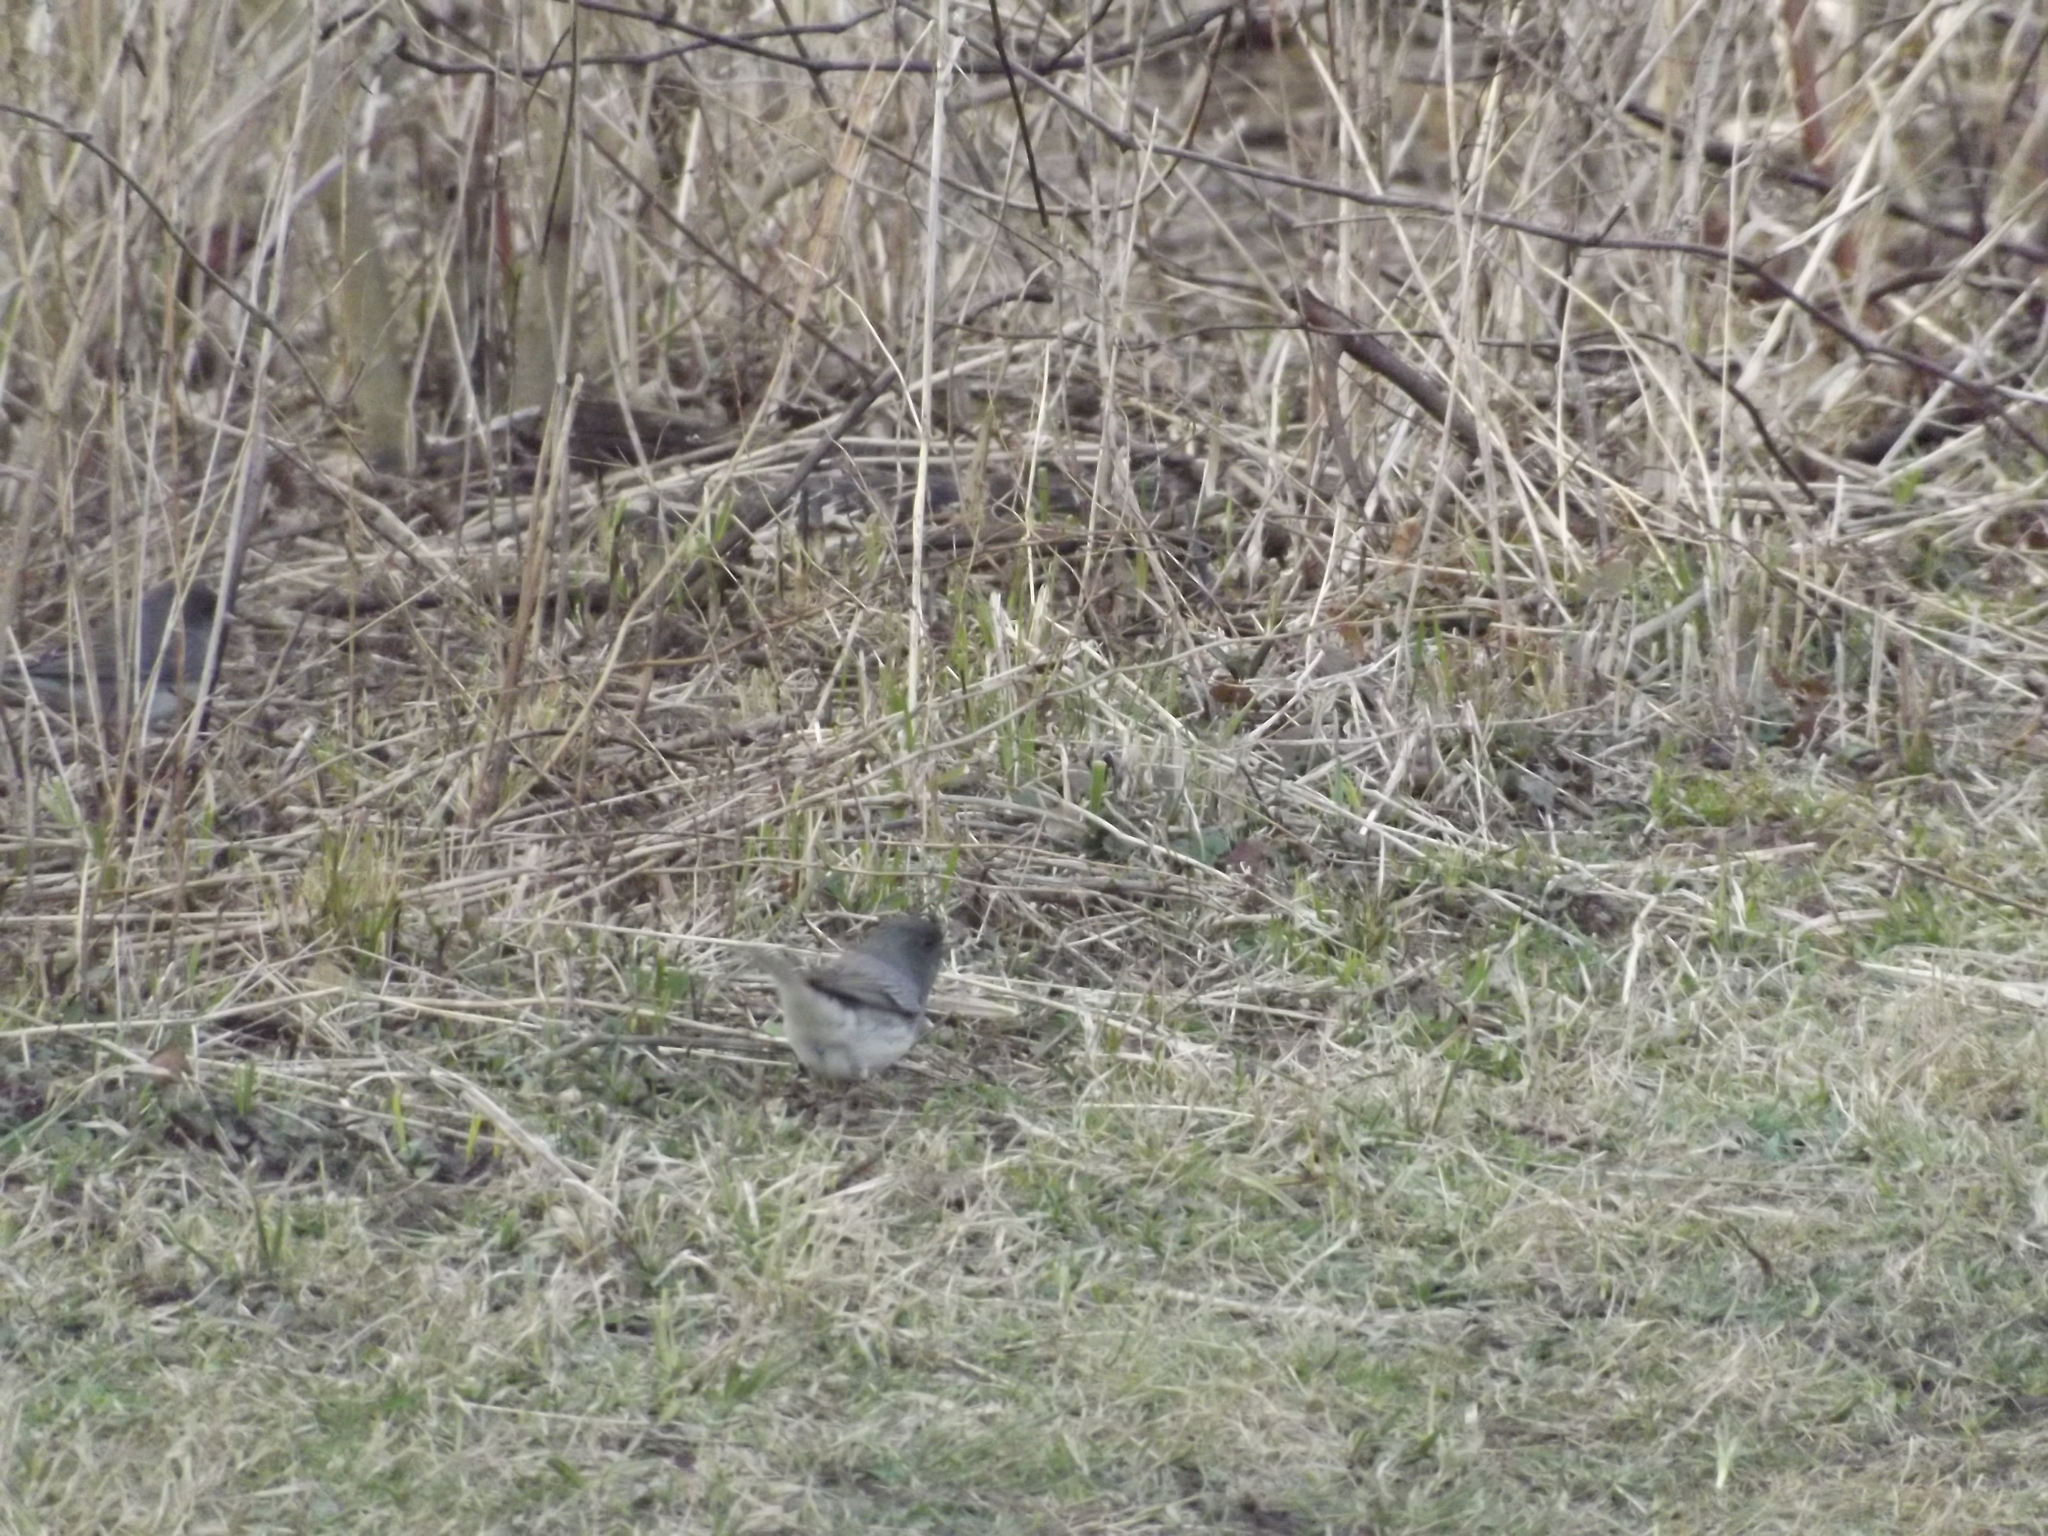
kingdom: Animalia
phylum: Chordata
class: Aves
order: Passeriformes
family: Passerellidae
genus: Junco
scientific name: Junco hyemalis
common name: Dark-eyed junco
